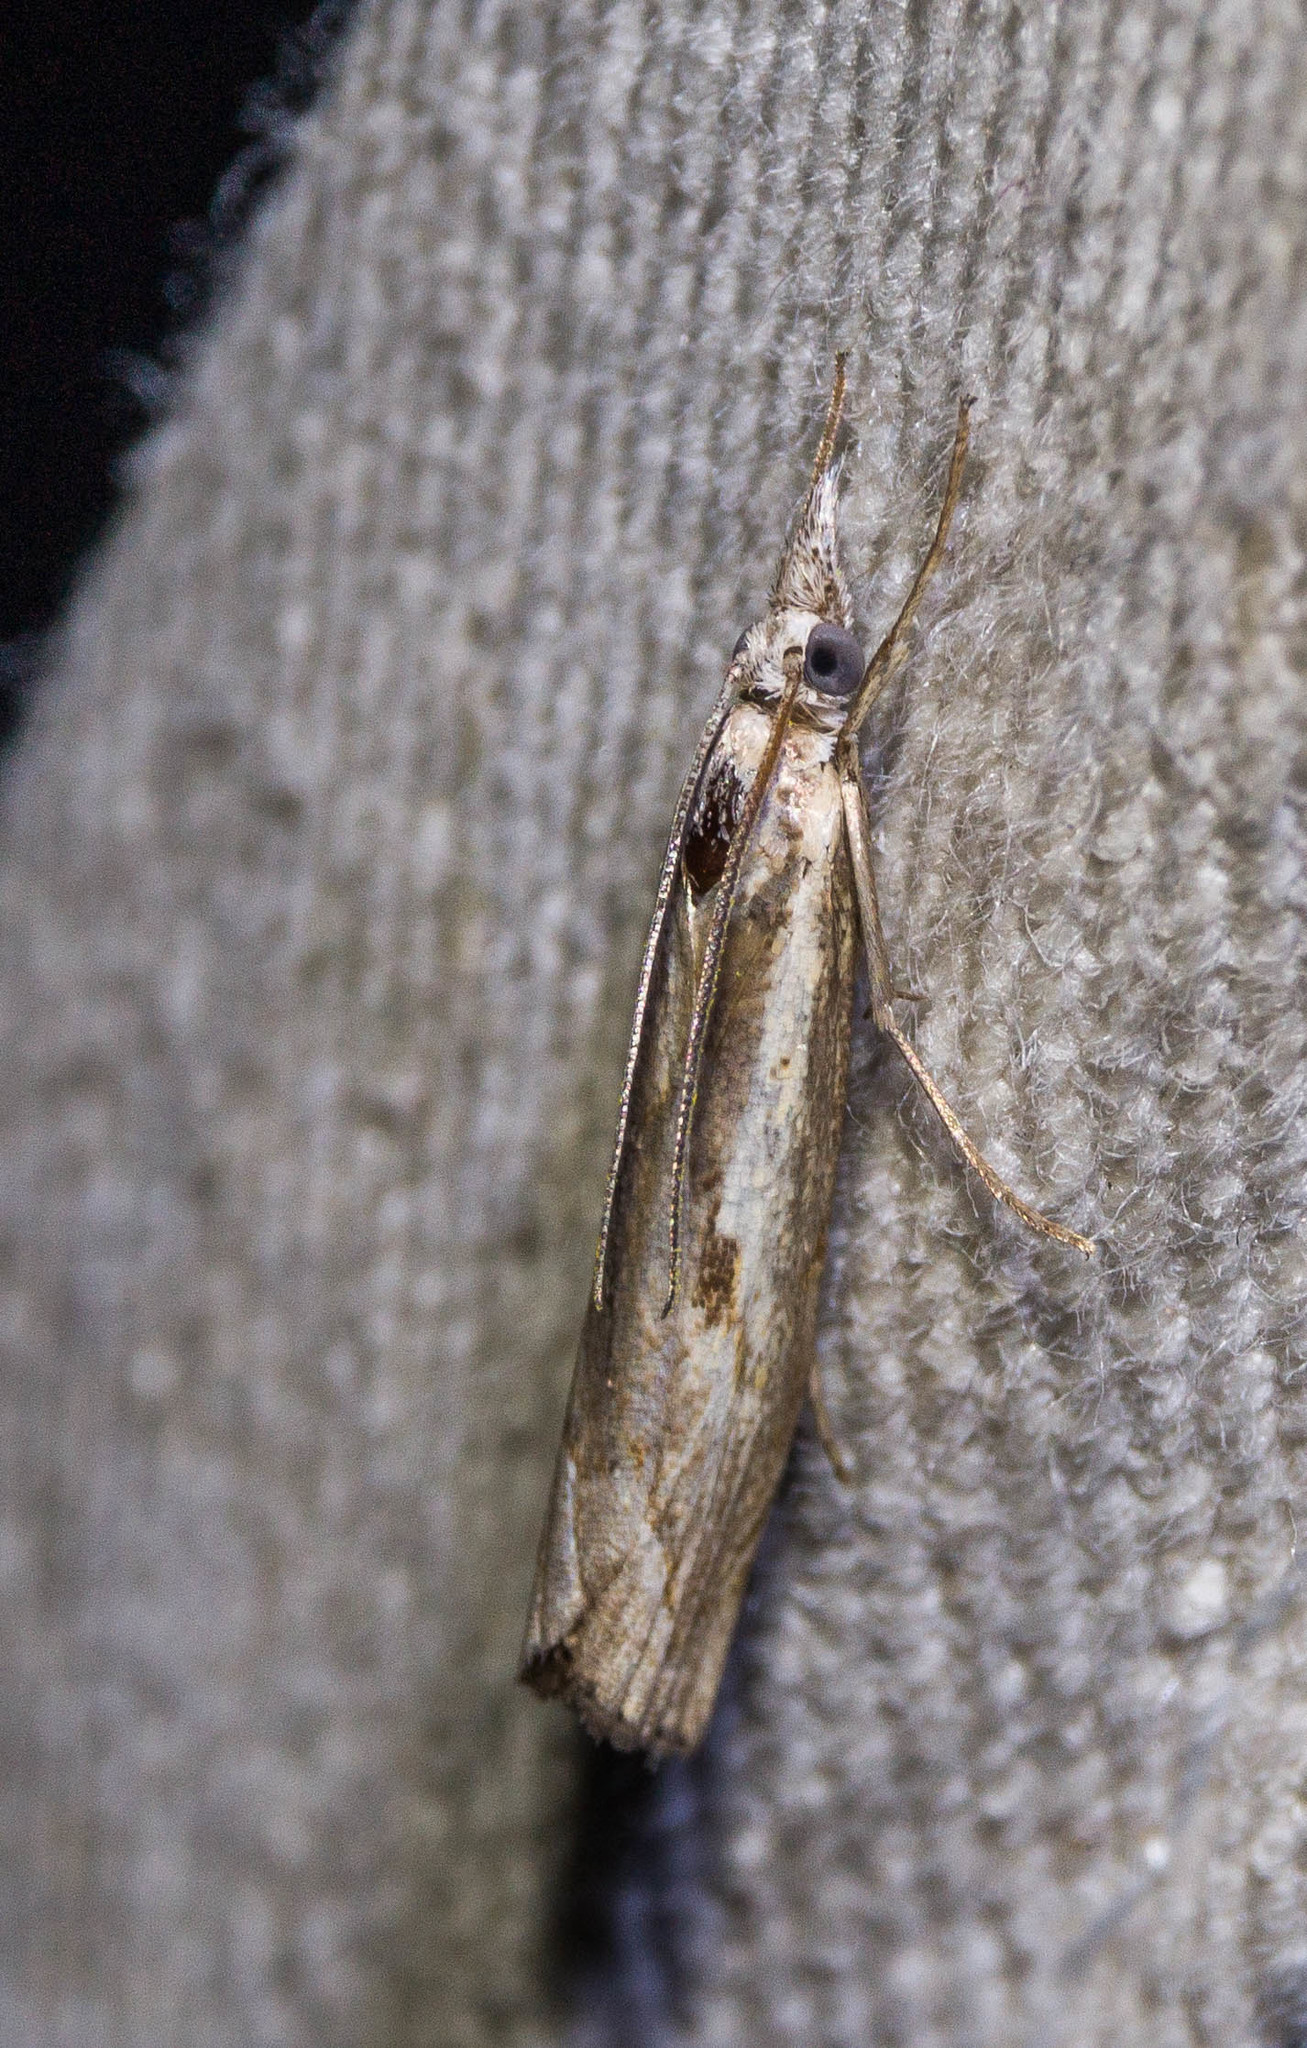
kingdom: Animalia
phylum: Arthropoda
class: Insecta
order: Lepidoptera
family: Crambidae
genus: Agriphila
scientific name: Agriphila geniculea
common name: Elbow-stripe grass-veneer
